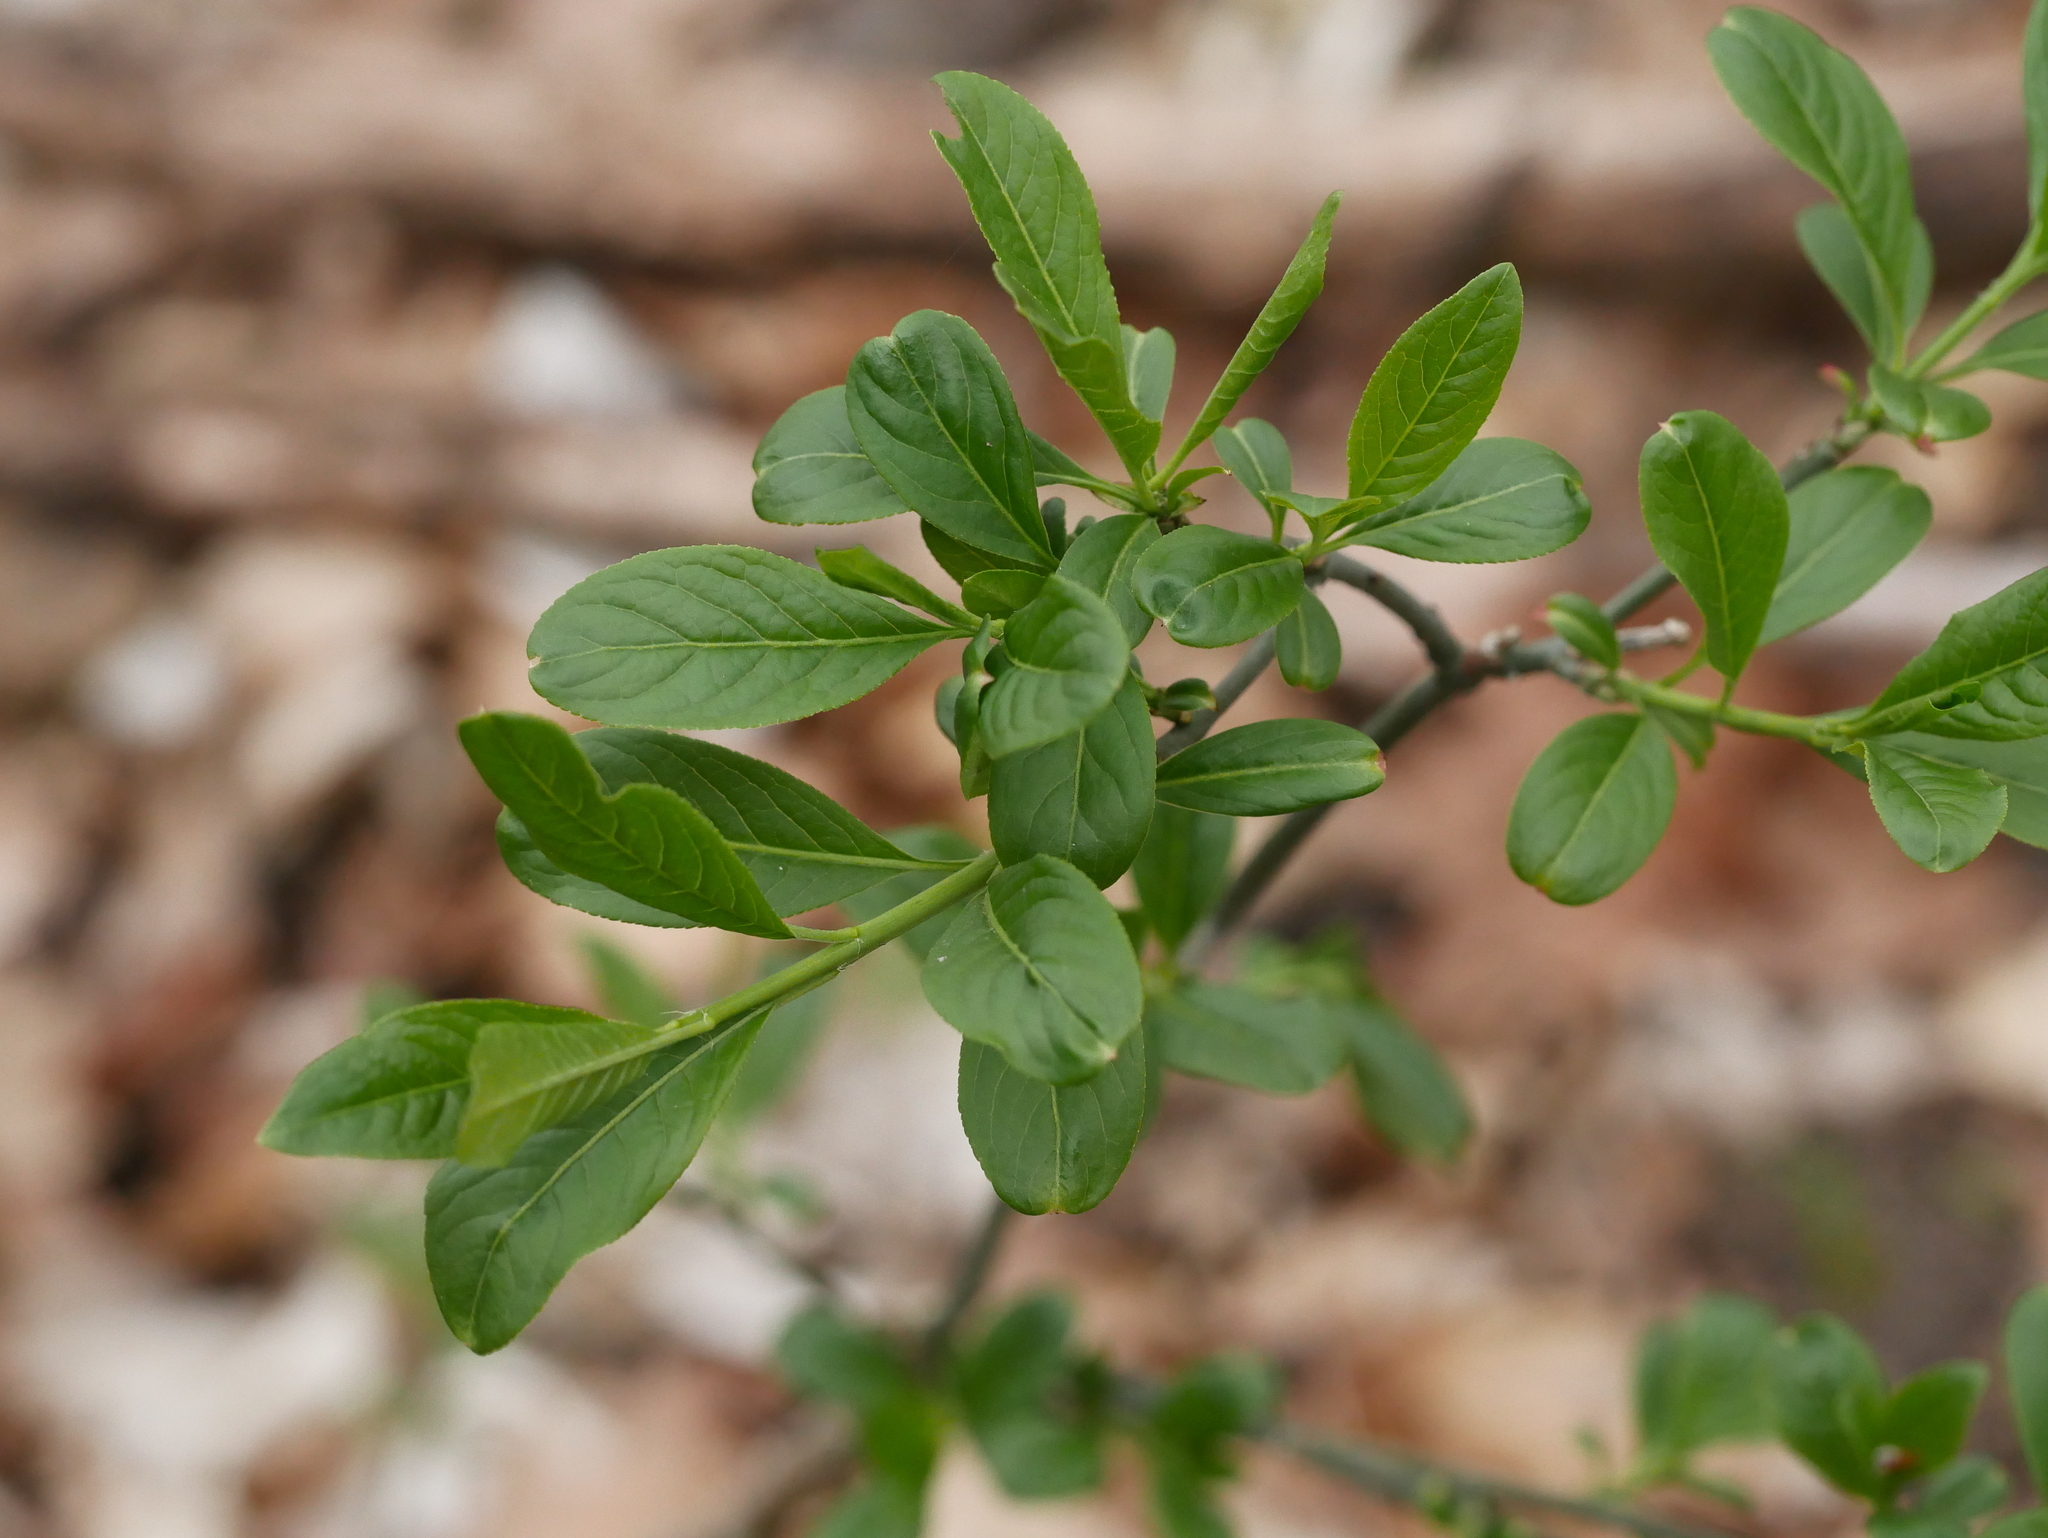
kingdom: Plantae
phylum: Tracheophyta
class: Magnoliopsida
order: Celastrales
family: Celastraceae
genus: Euonymus
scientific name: Euonymus europaeus
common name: Spindle
